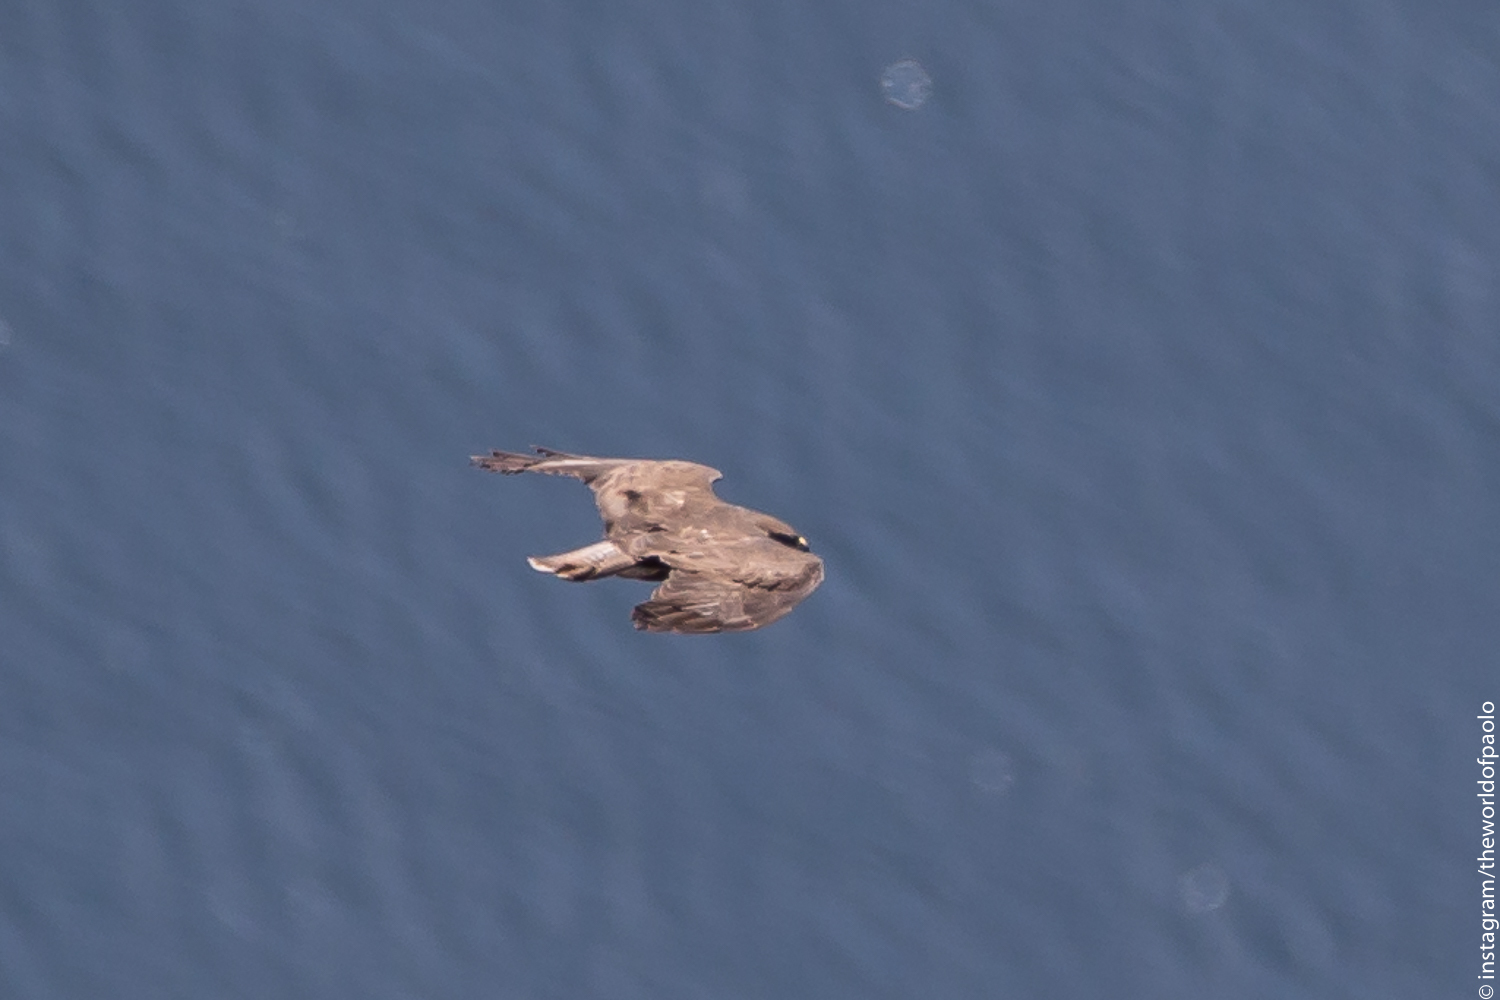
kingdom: Animalia
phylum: Chordata
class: Aves
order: Accipitriformes
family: Accipitridae
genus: Buteo
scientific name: Buteo buteo
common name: Common buzzard
